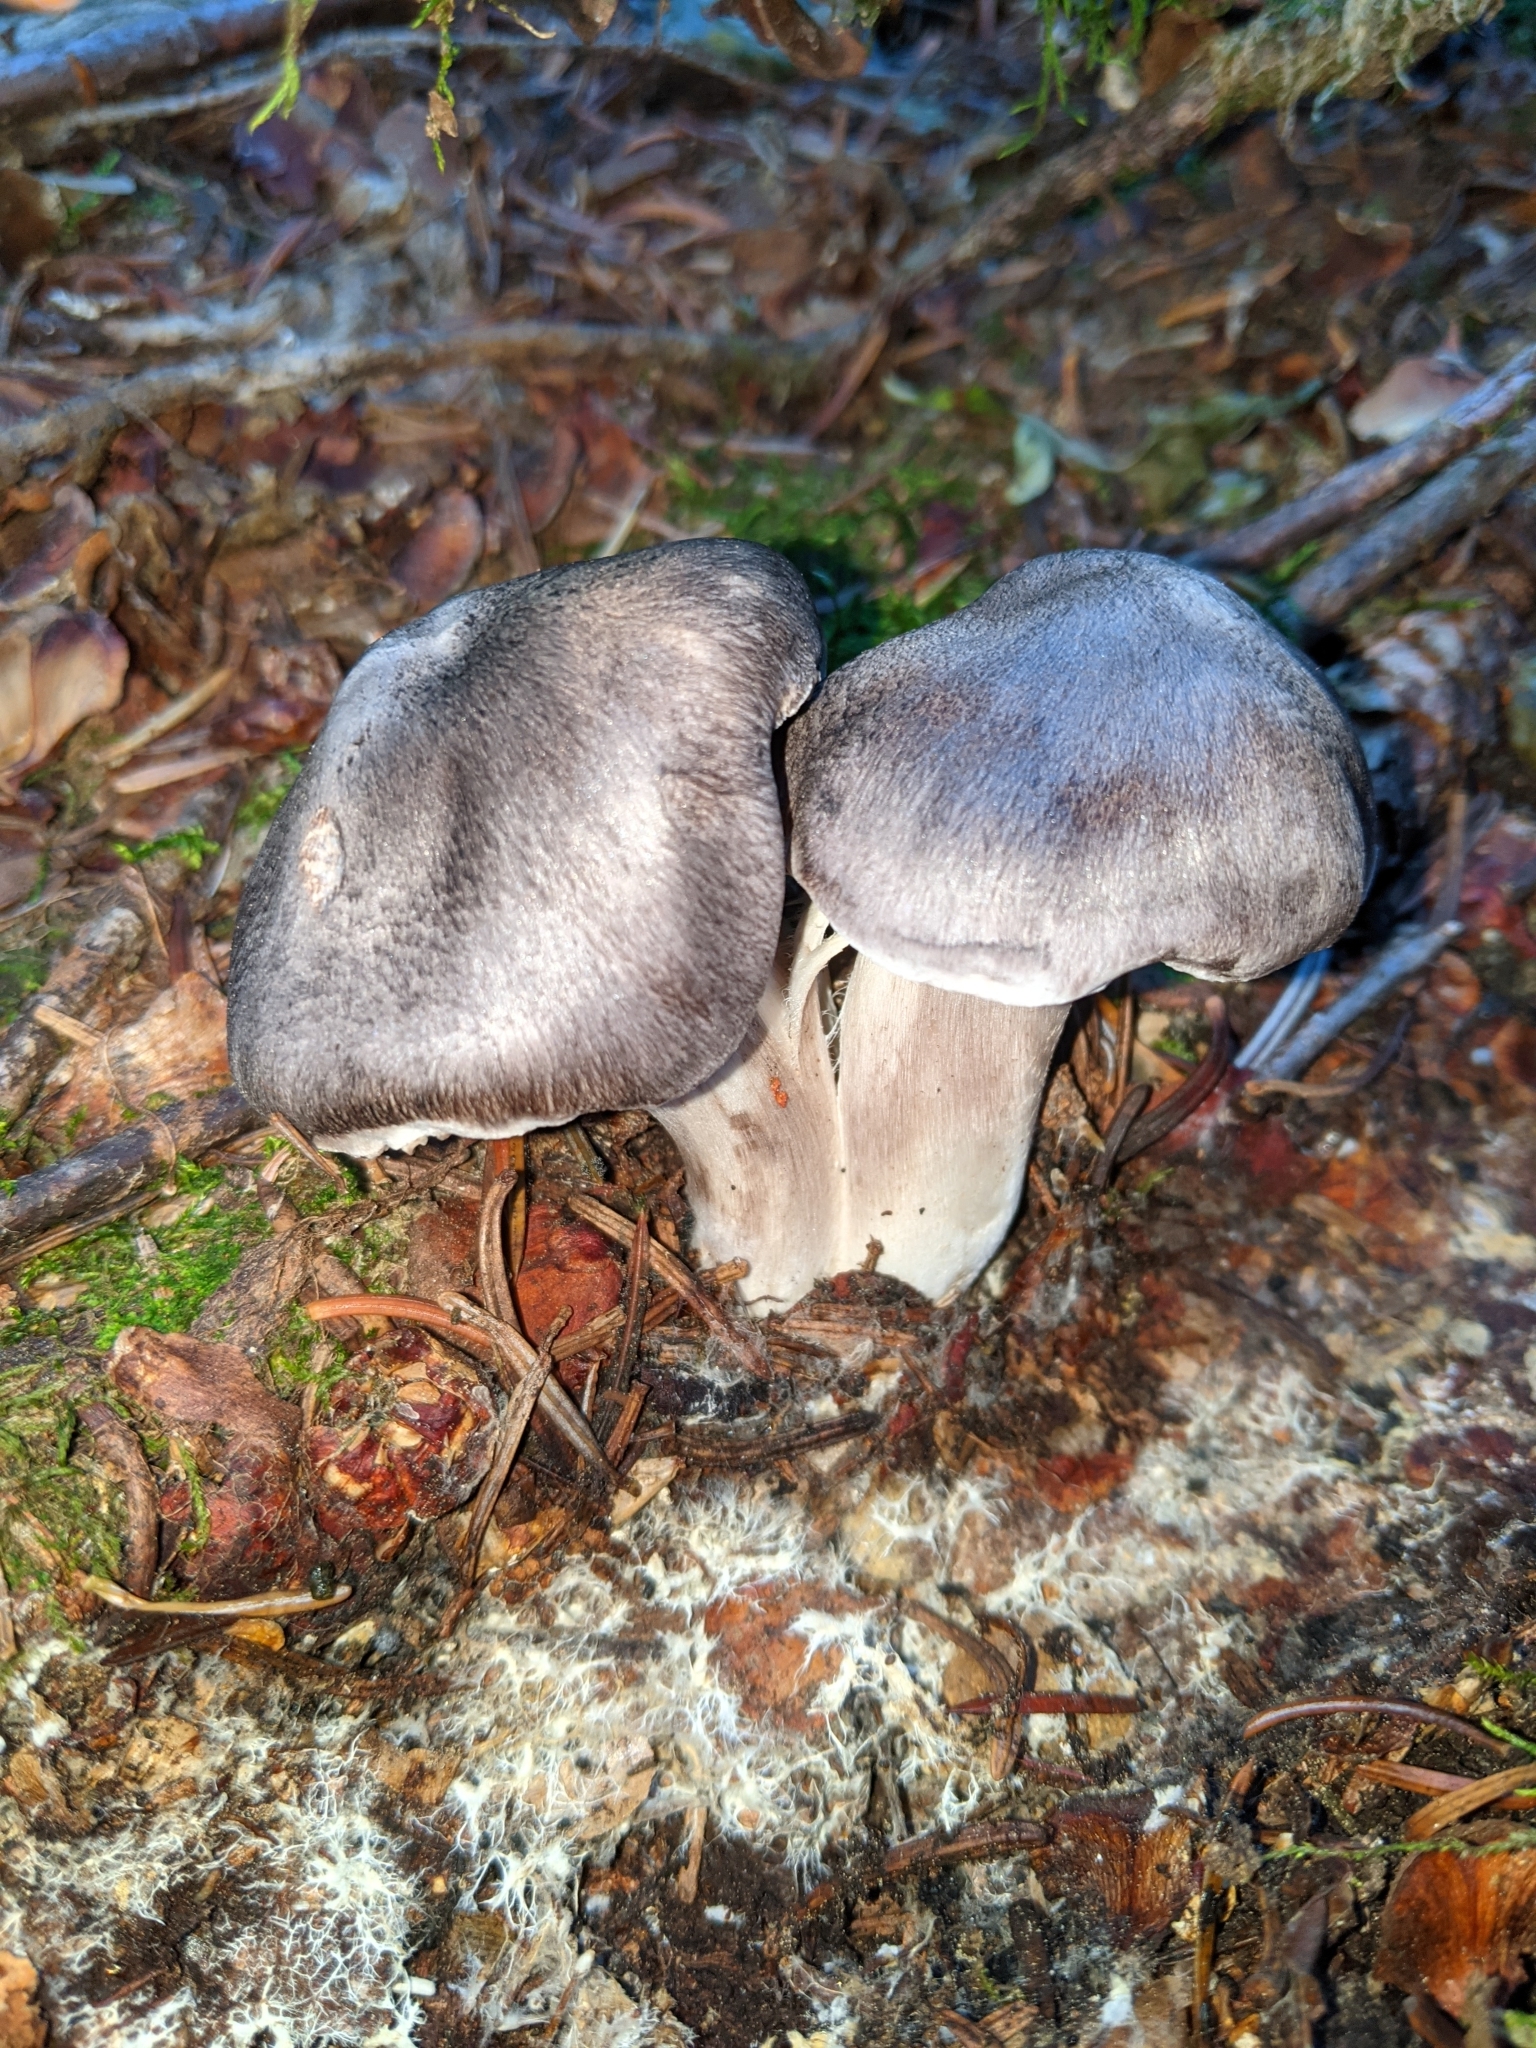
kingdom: Fungi
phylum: Basidiomycota
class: Agaricomycetes
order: Agaricales
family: Pluteaceae
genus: Pluteus
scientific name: Pluteus atromarginatus
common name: Blackedged shield
